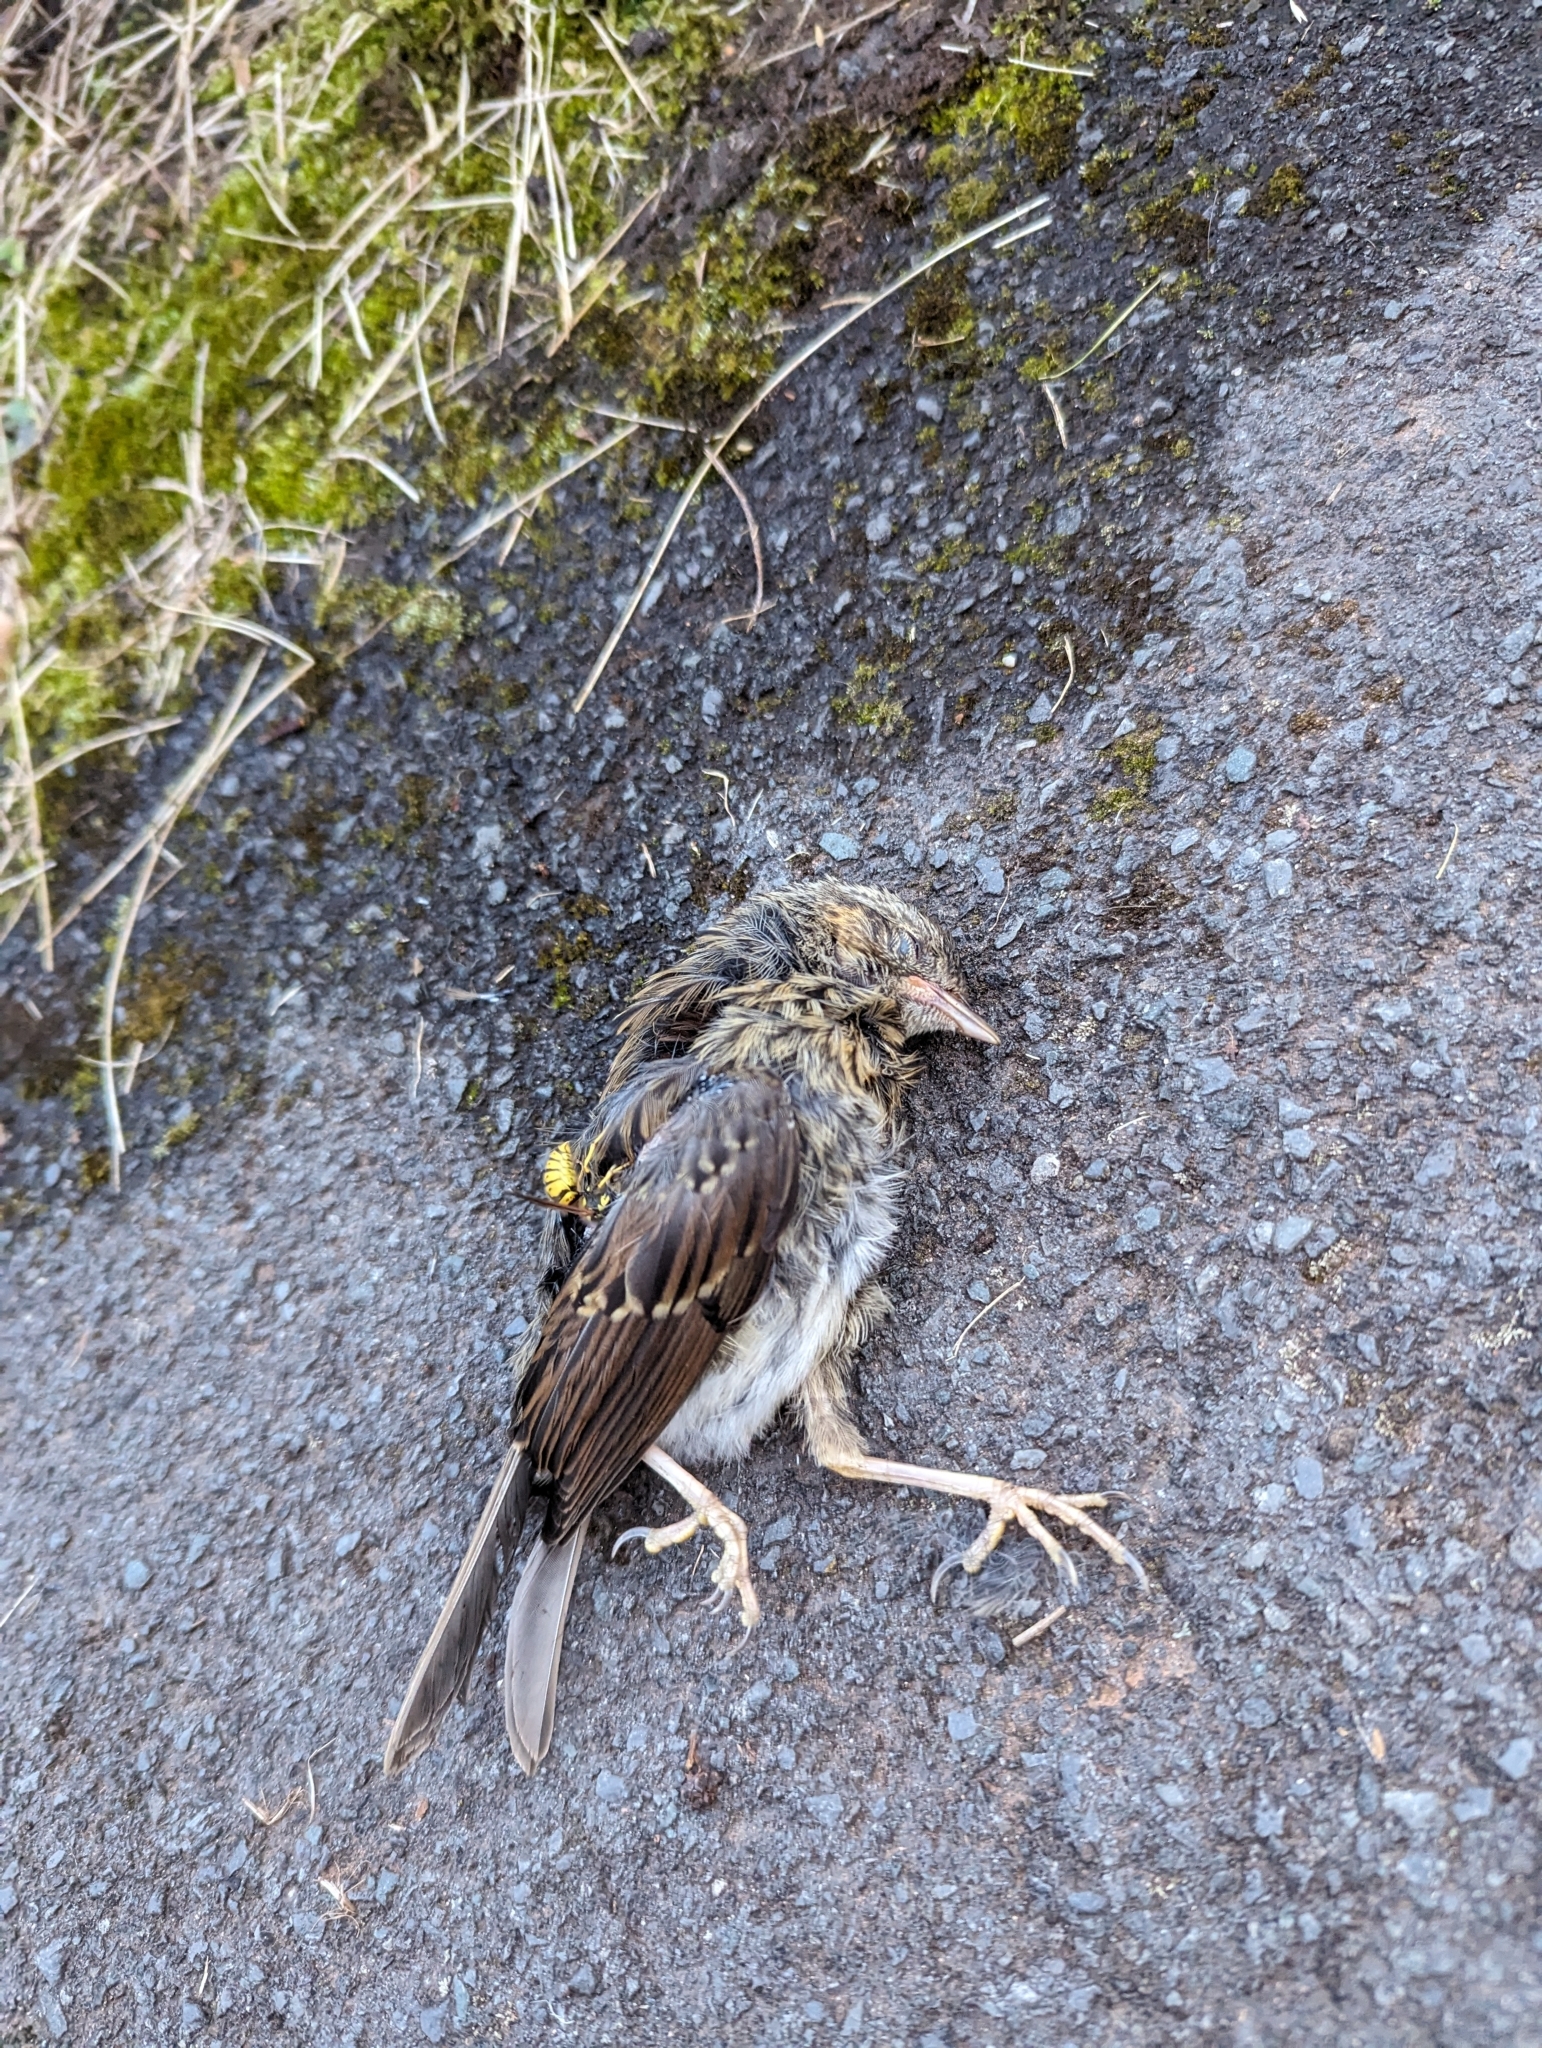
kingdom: Animalia
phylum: Chordata
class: Aves
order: Passeriformes
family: Prunellidae
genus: Prunella
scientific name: Prunella modularis
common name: Dunnock
